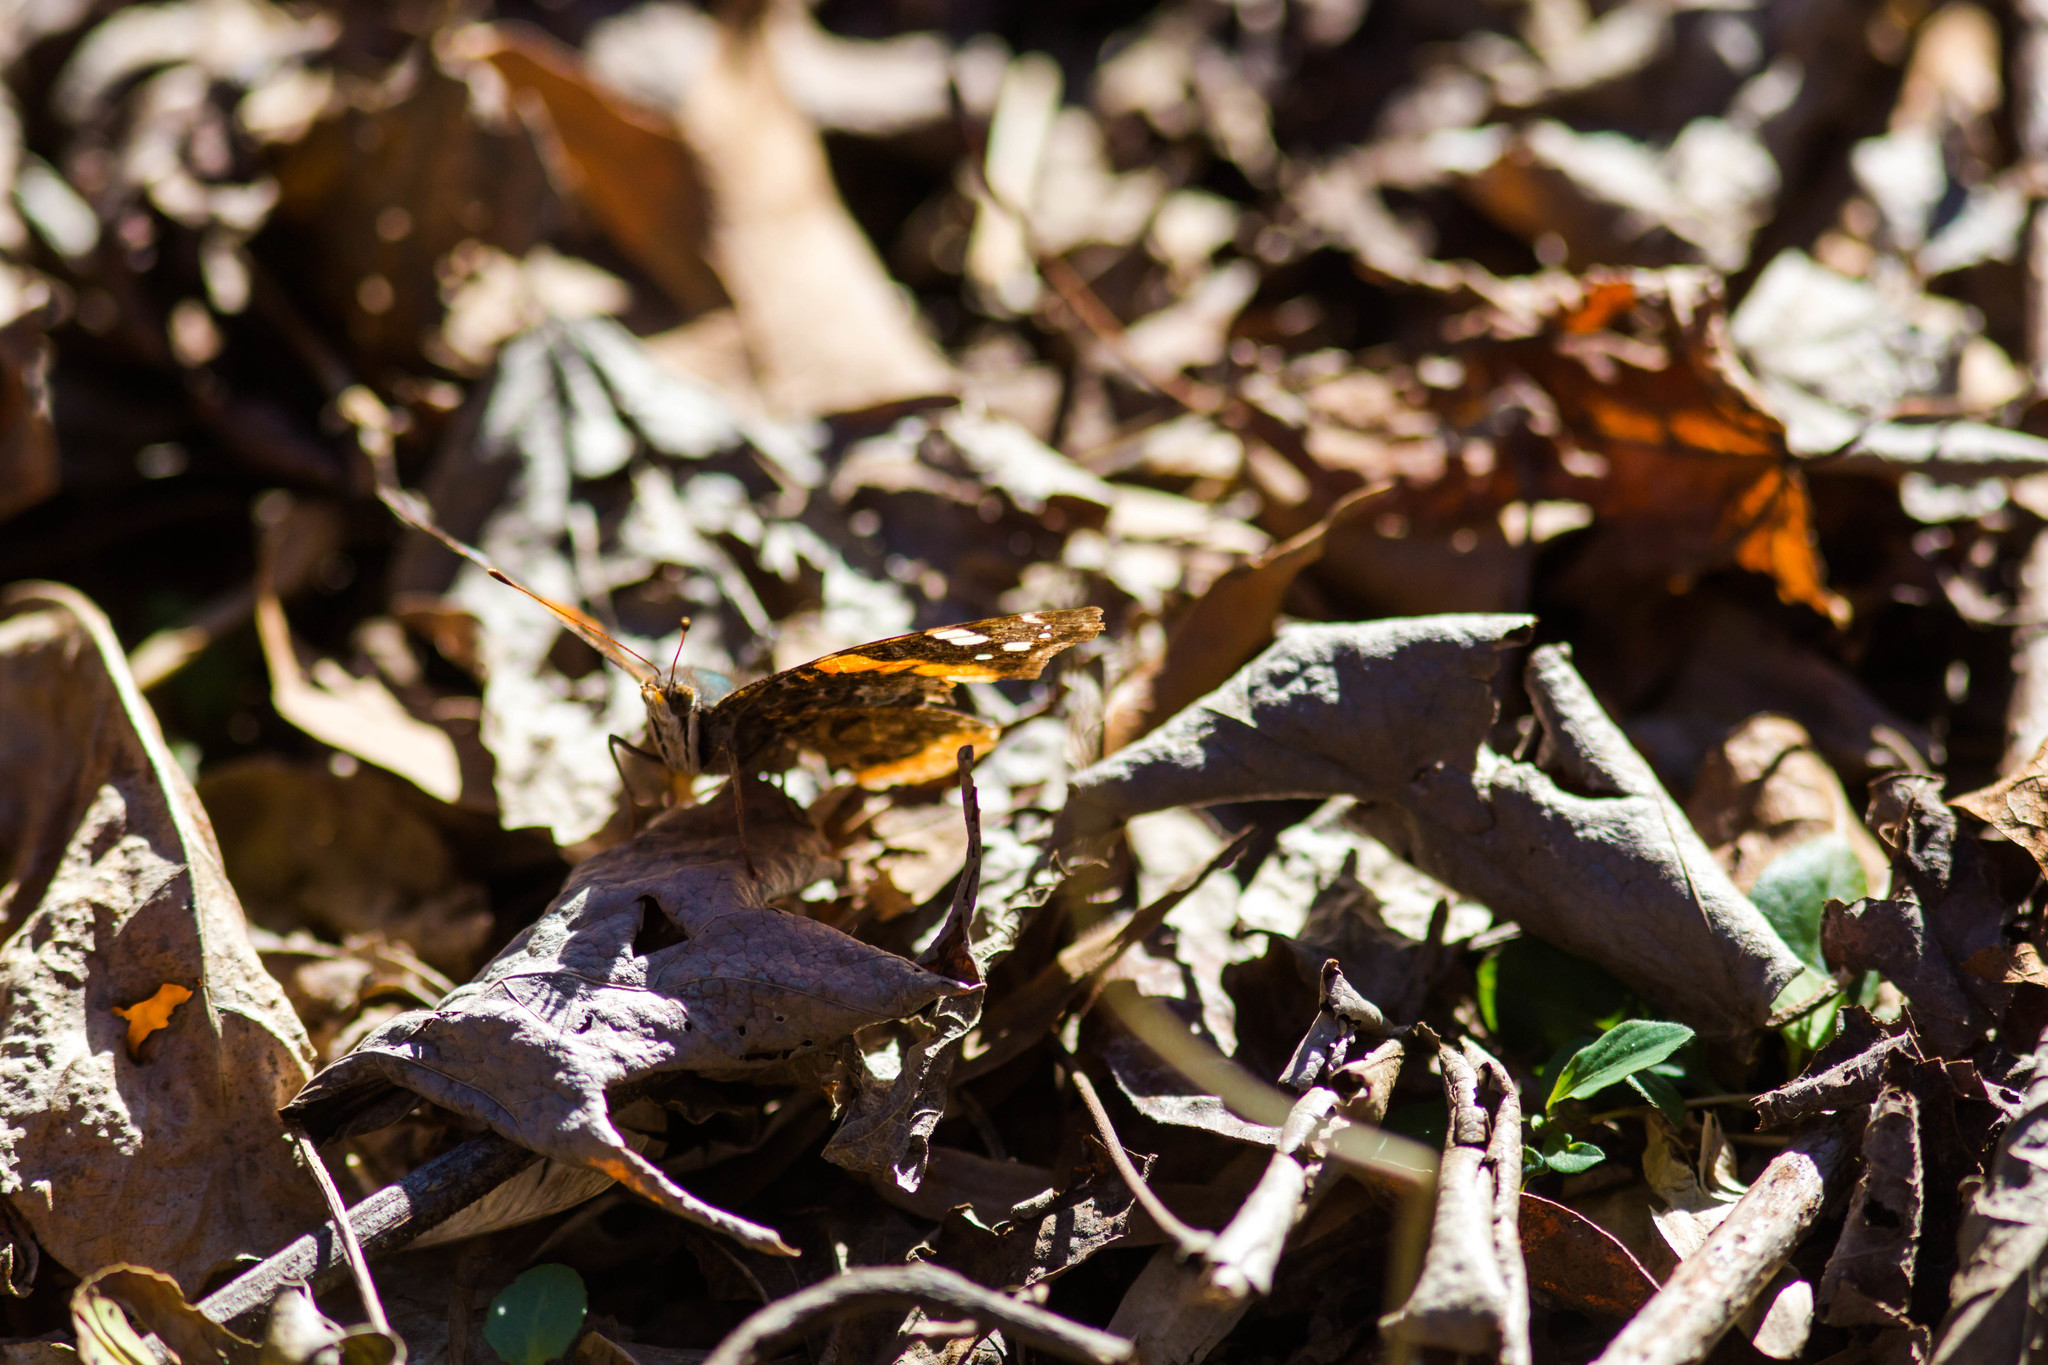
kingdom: Animalia
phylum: Arthropoda
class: Insecta
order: Lepidoptera
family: Nymphalidae
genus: Vanessa
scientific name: Vanessa atalanta
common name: Red admiral
